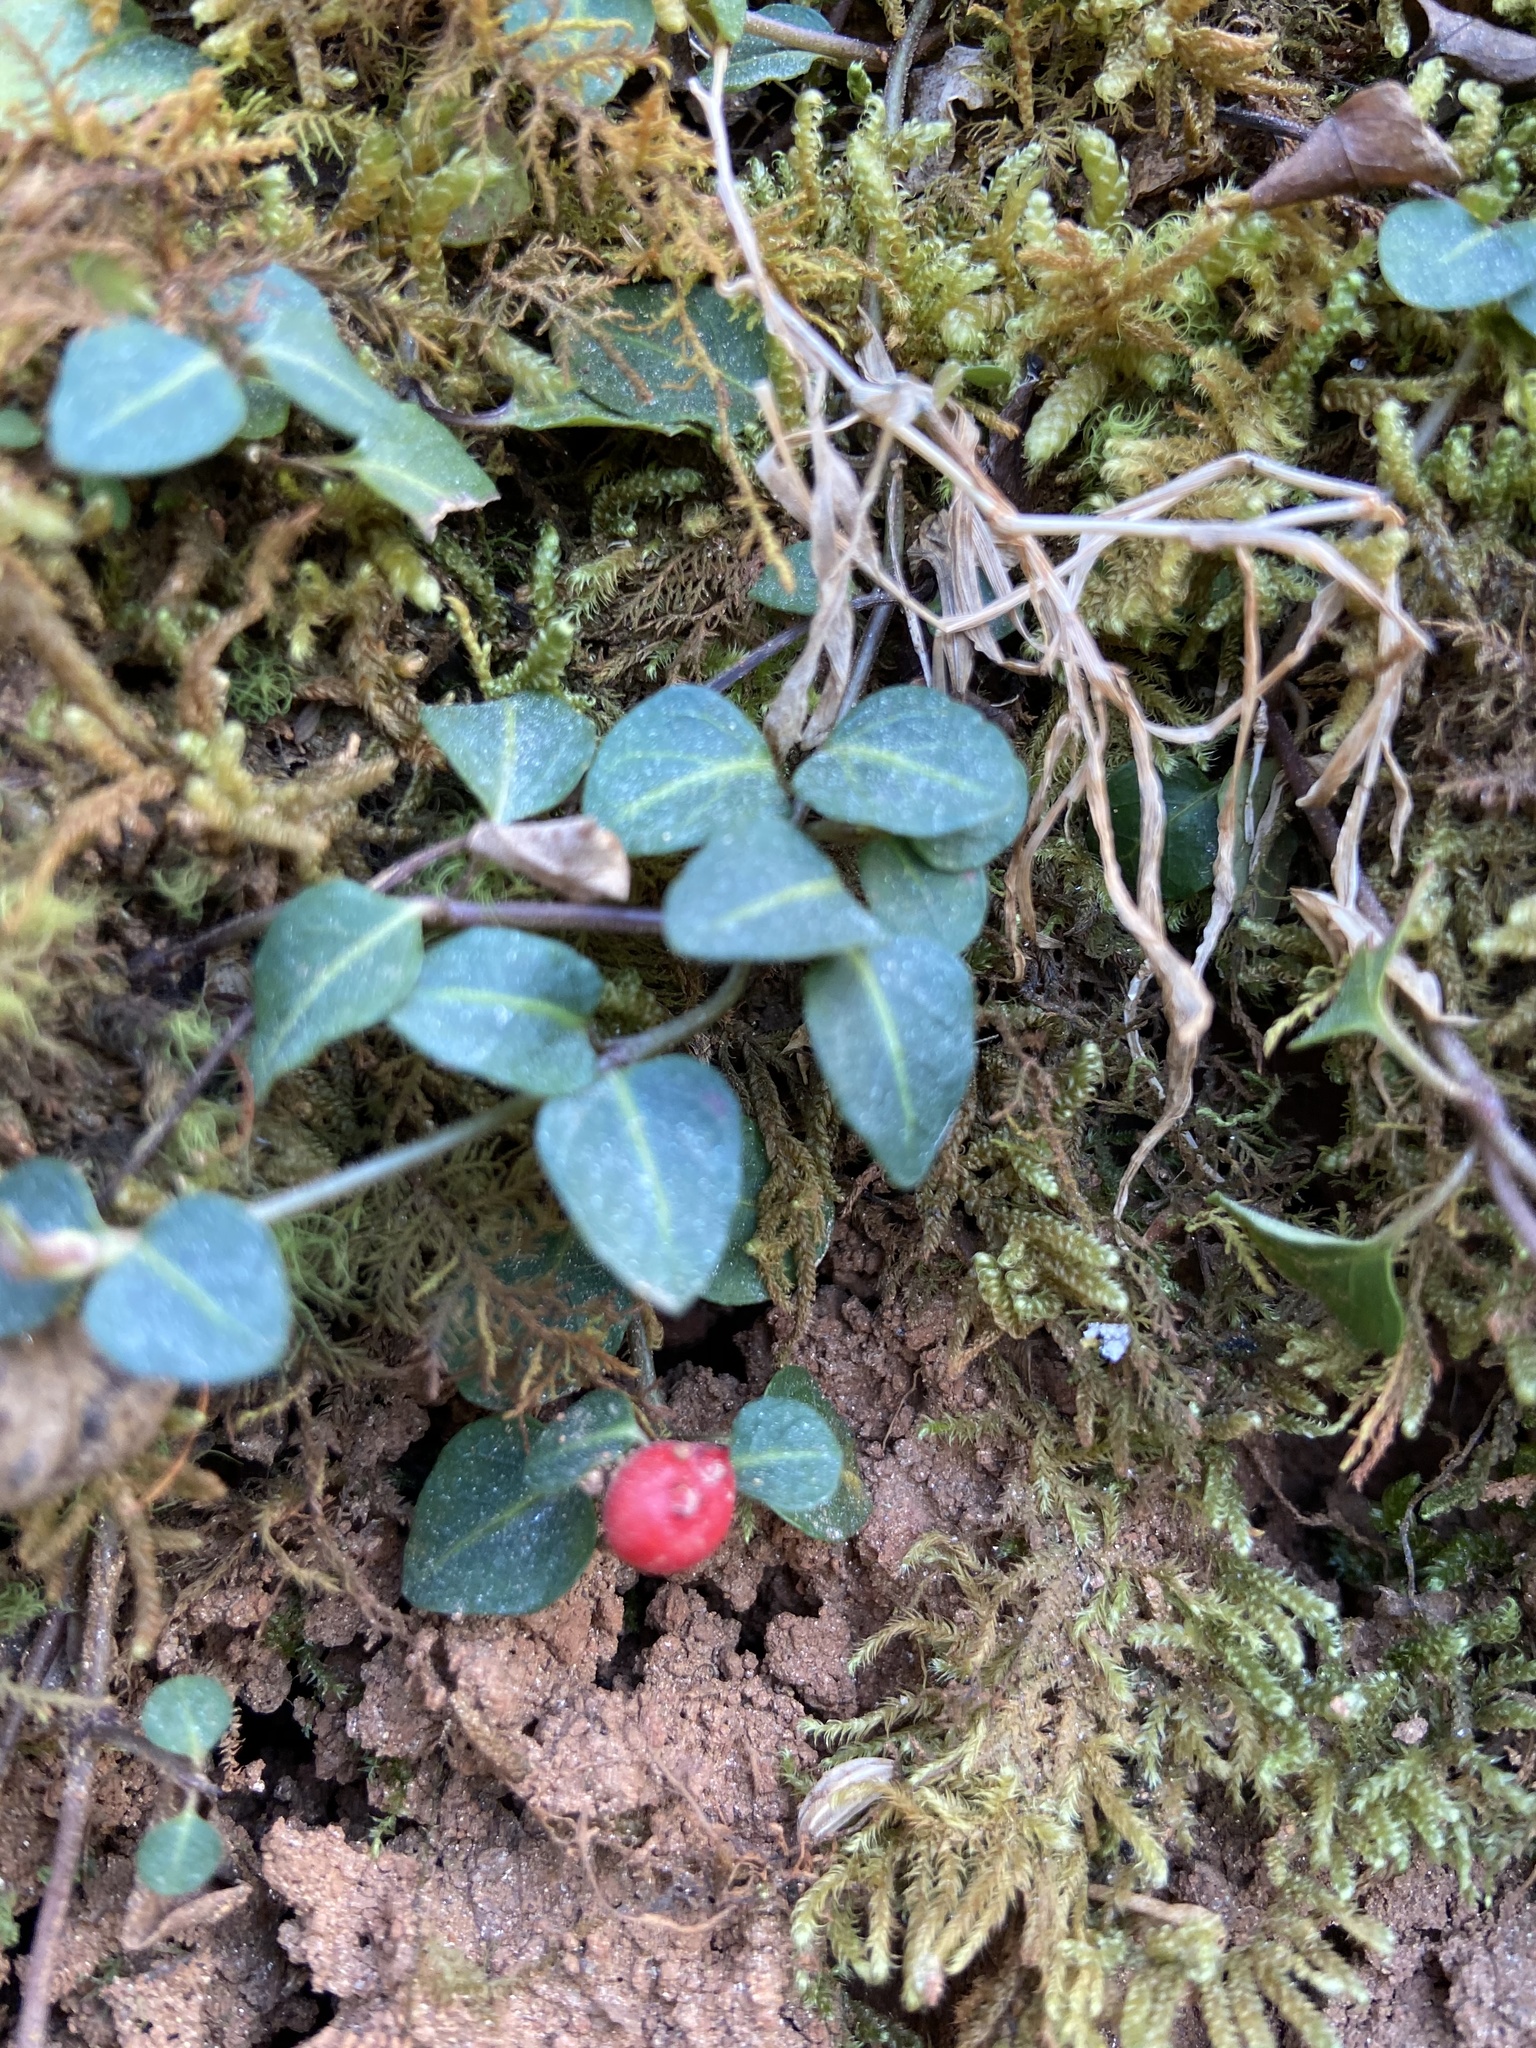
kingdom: Plantae
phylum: Tracheophyta
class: Magnoliopsida
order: Gentianales
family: Rubiaceae
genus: Mitchella
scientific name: Mitchella repens
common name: Partridge-berry
